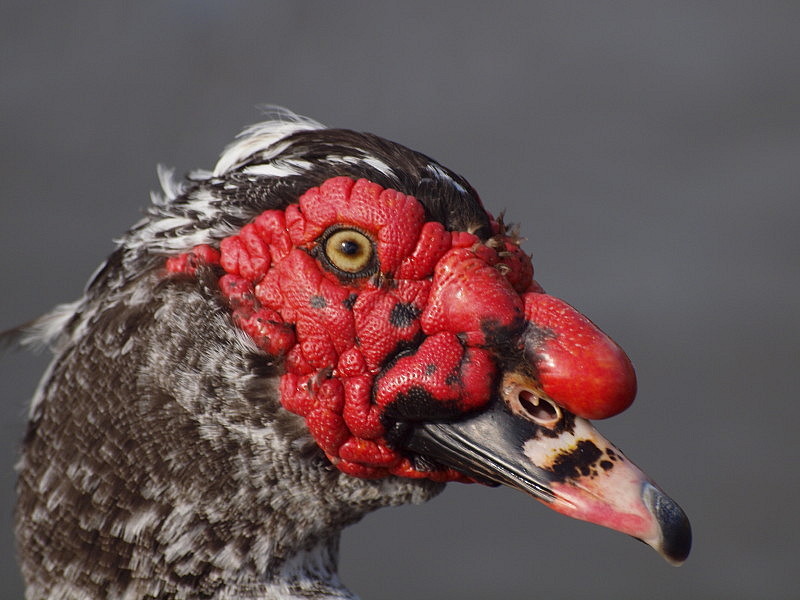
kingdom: Animalia
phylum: Chordata
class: Aves
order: Anseriformes
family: Anatidae
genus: Cairina
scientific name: Cairina moschata
